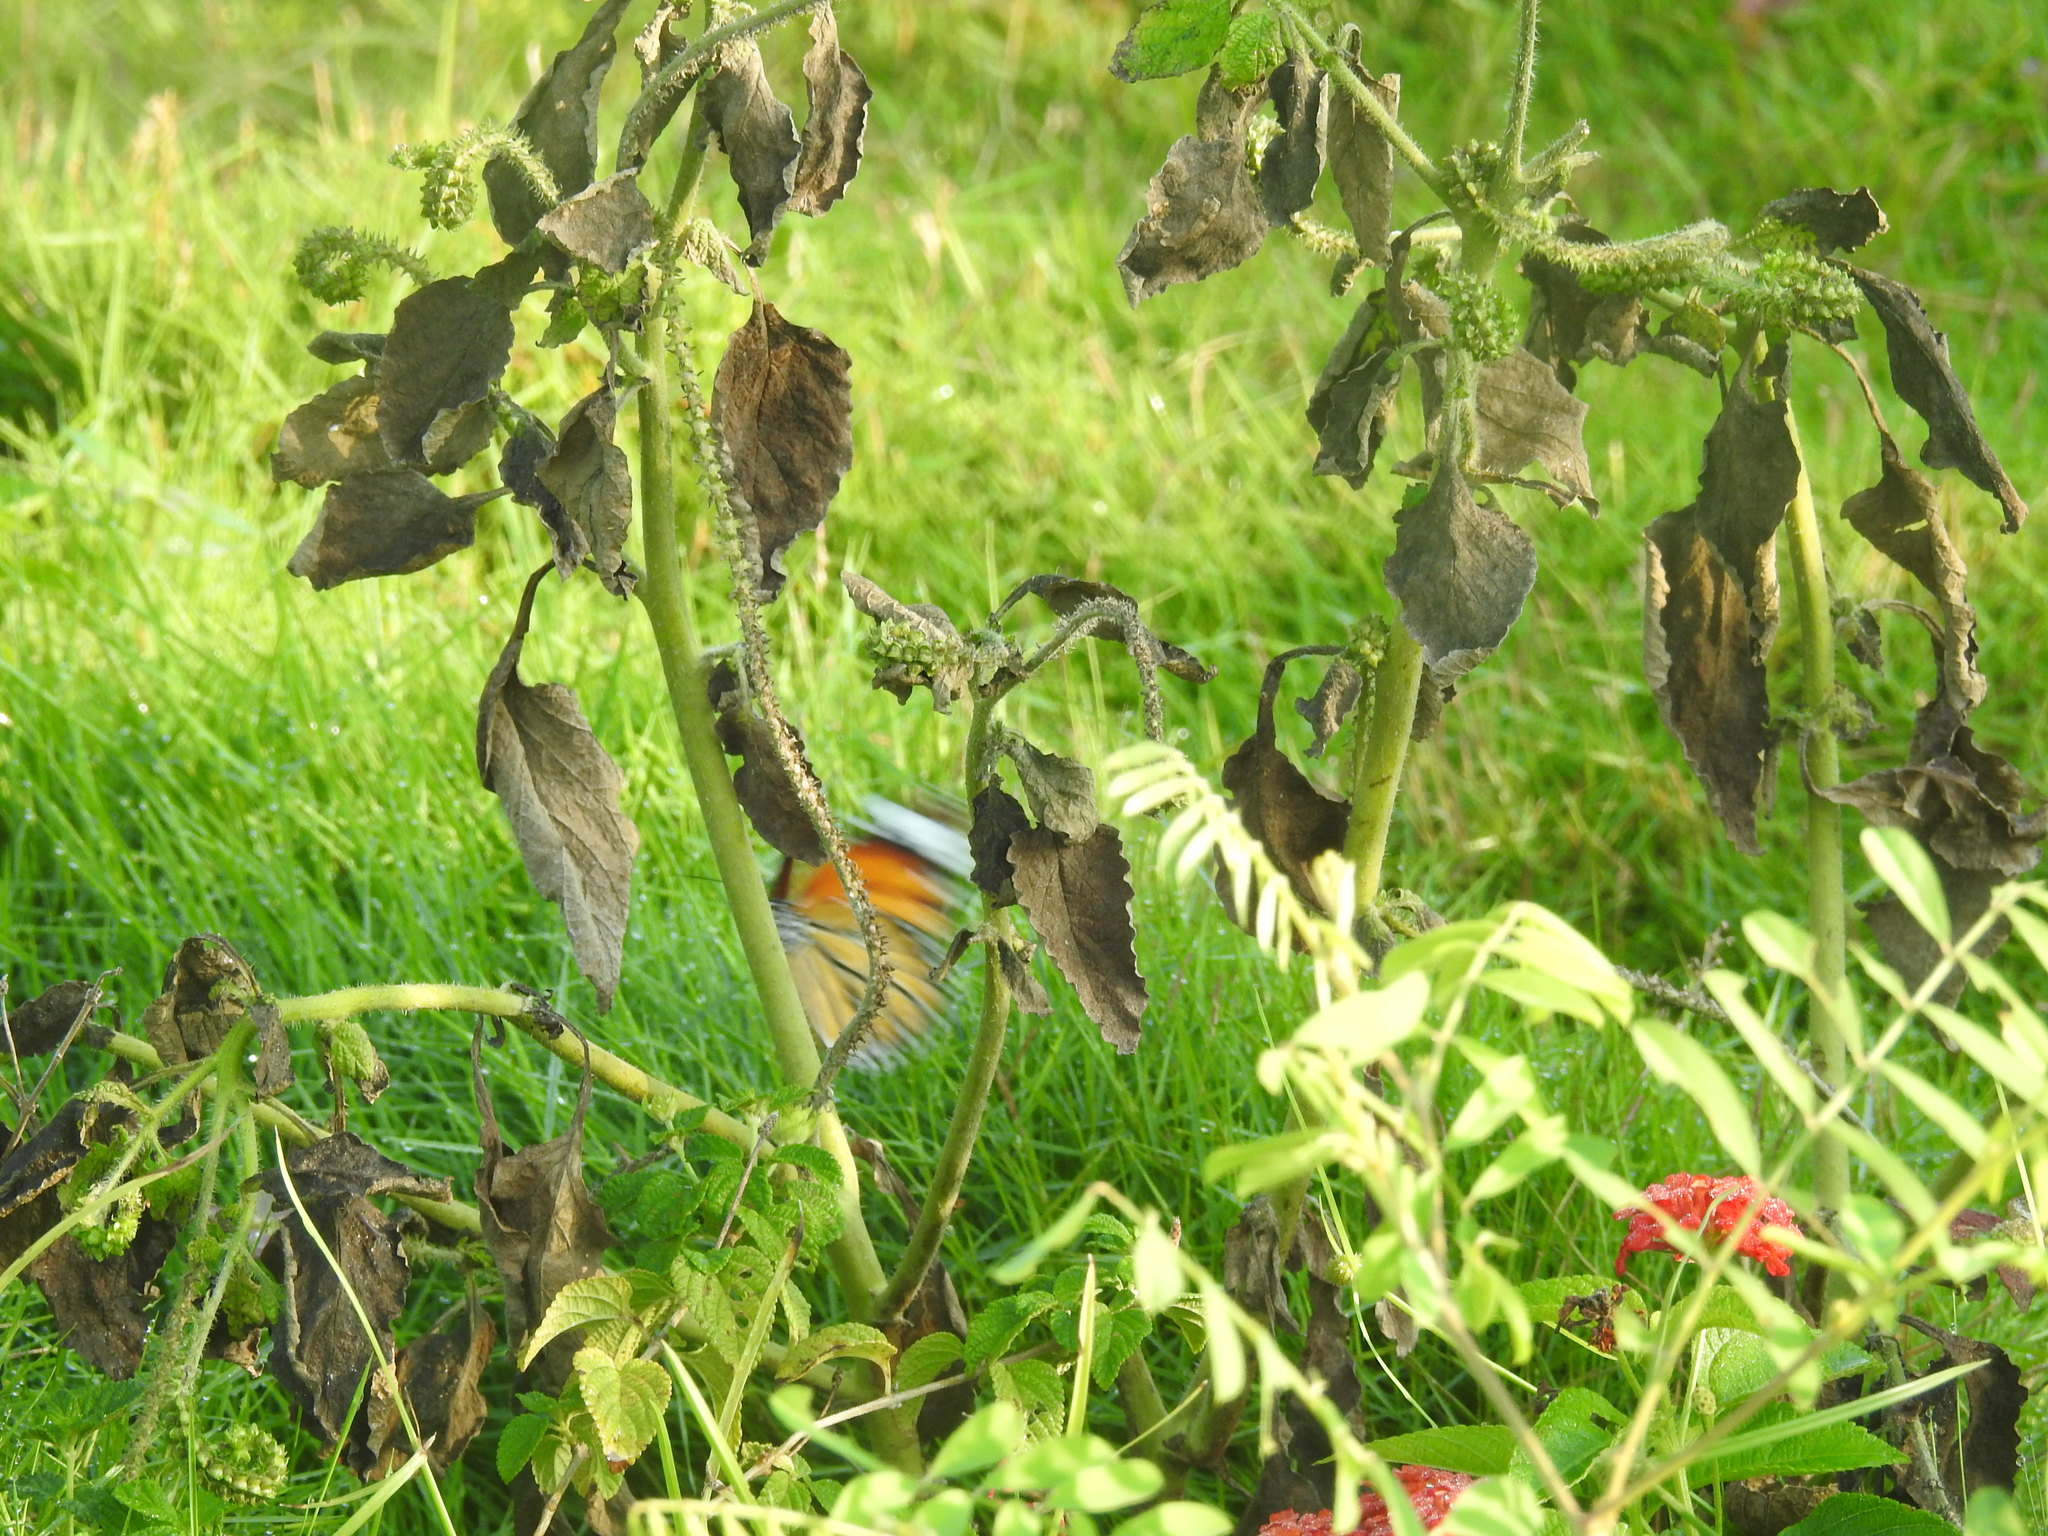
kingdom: Animalia
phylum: Arthropoda
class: Insecta
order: Lepidoptera
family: Nymphalidae
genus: Danaus
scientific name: Danaus genutia
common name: Common tiger butterfly
